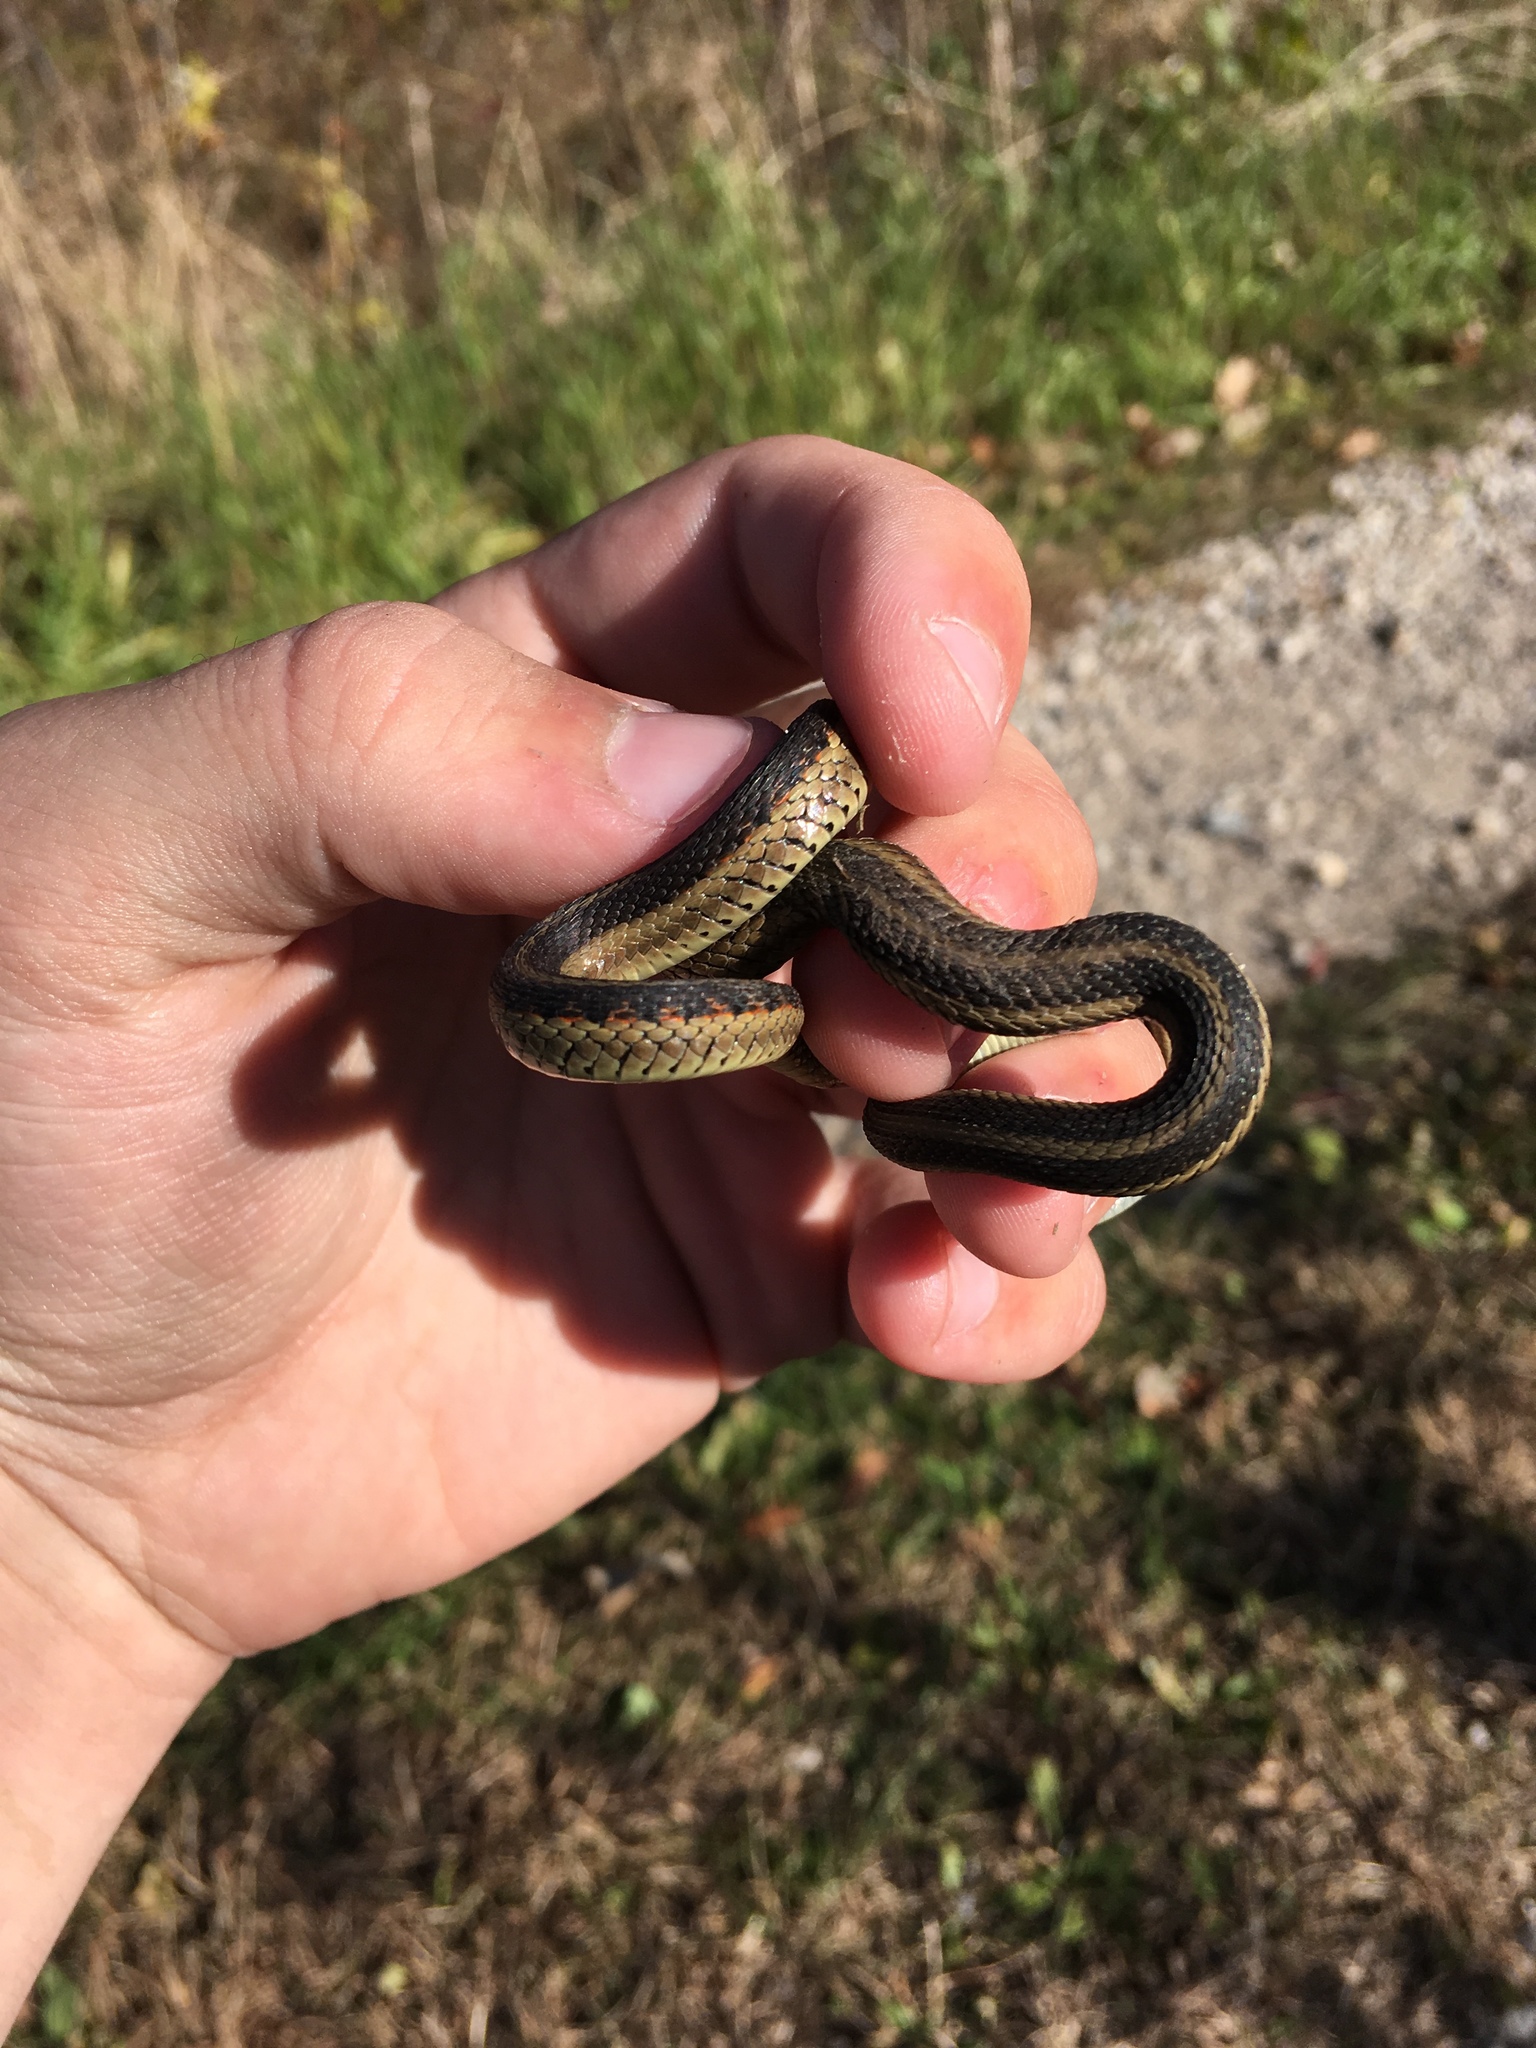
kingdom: Animalia
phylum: Chordata
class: Squamata
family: Colubridae
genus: Thamnophis
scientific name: Thamnophis sirtalis
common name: Common garter snake
